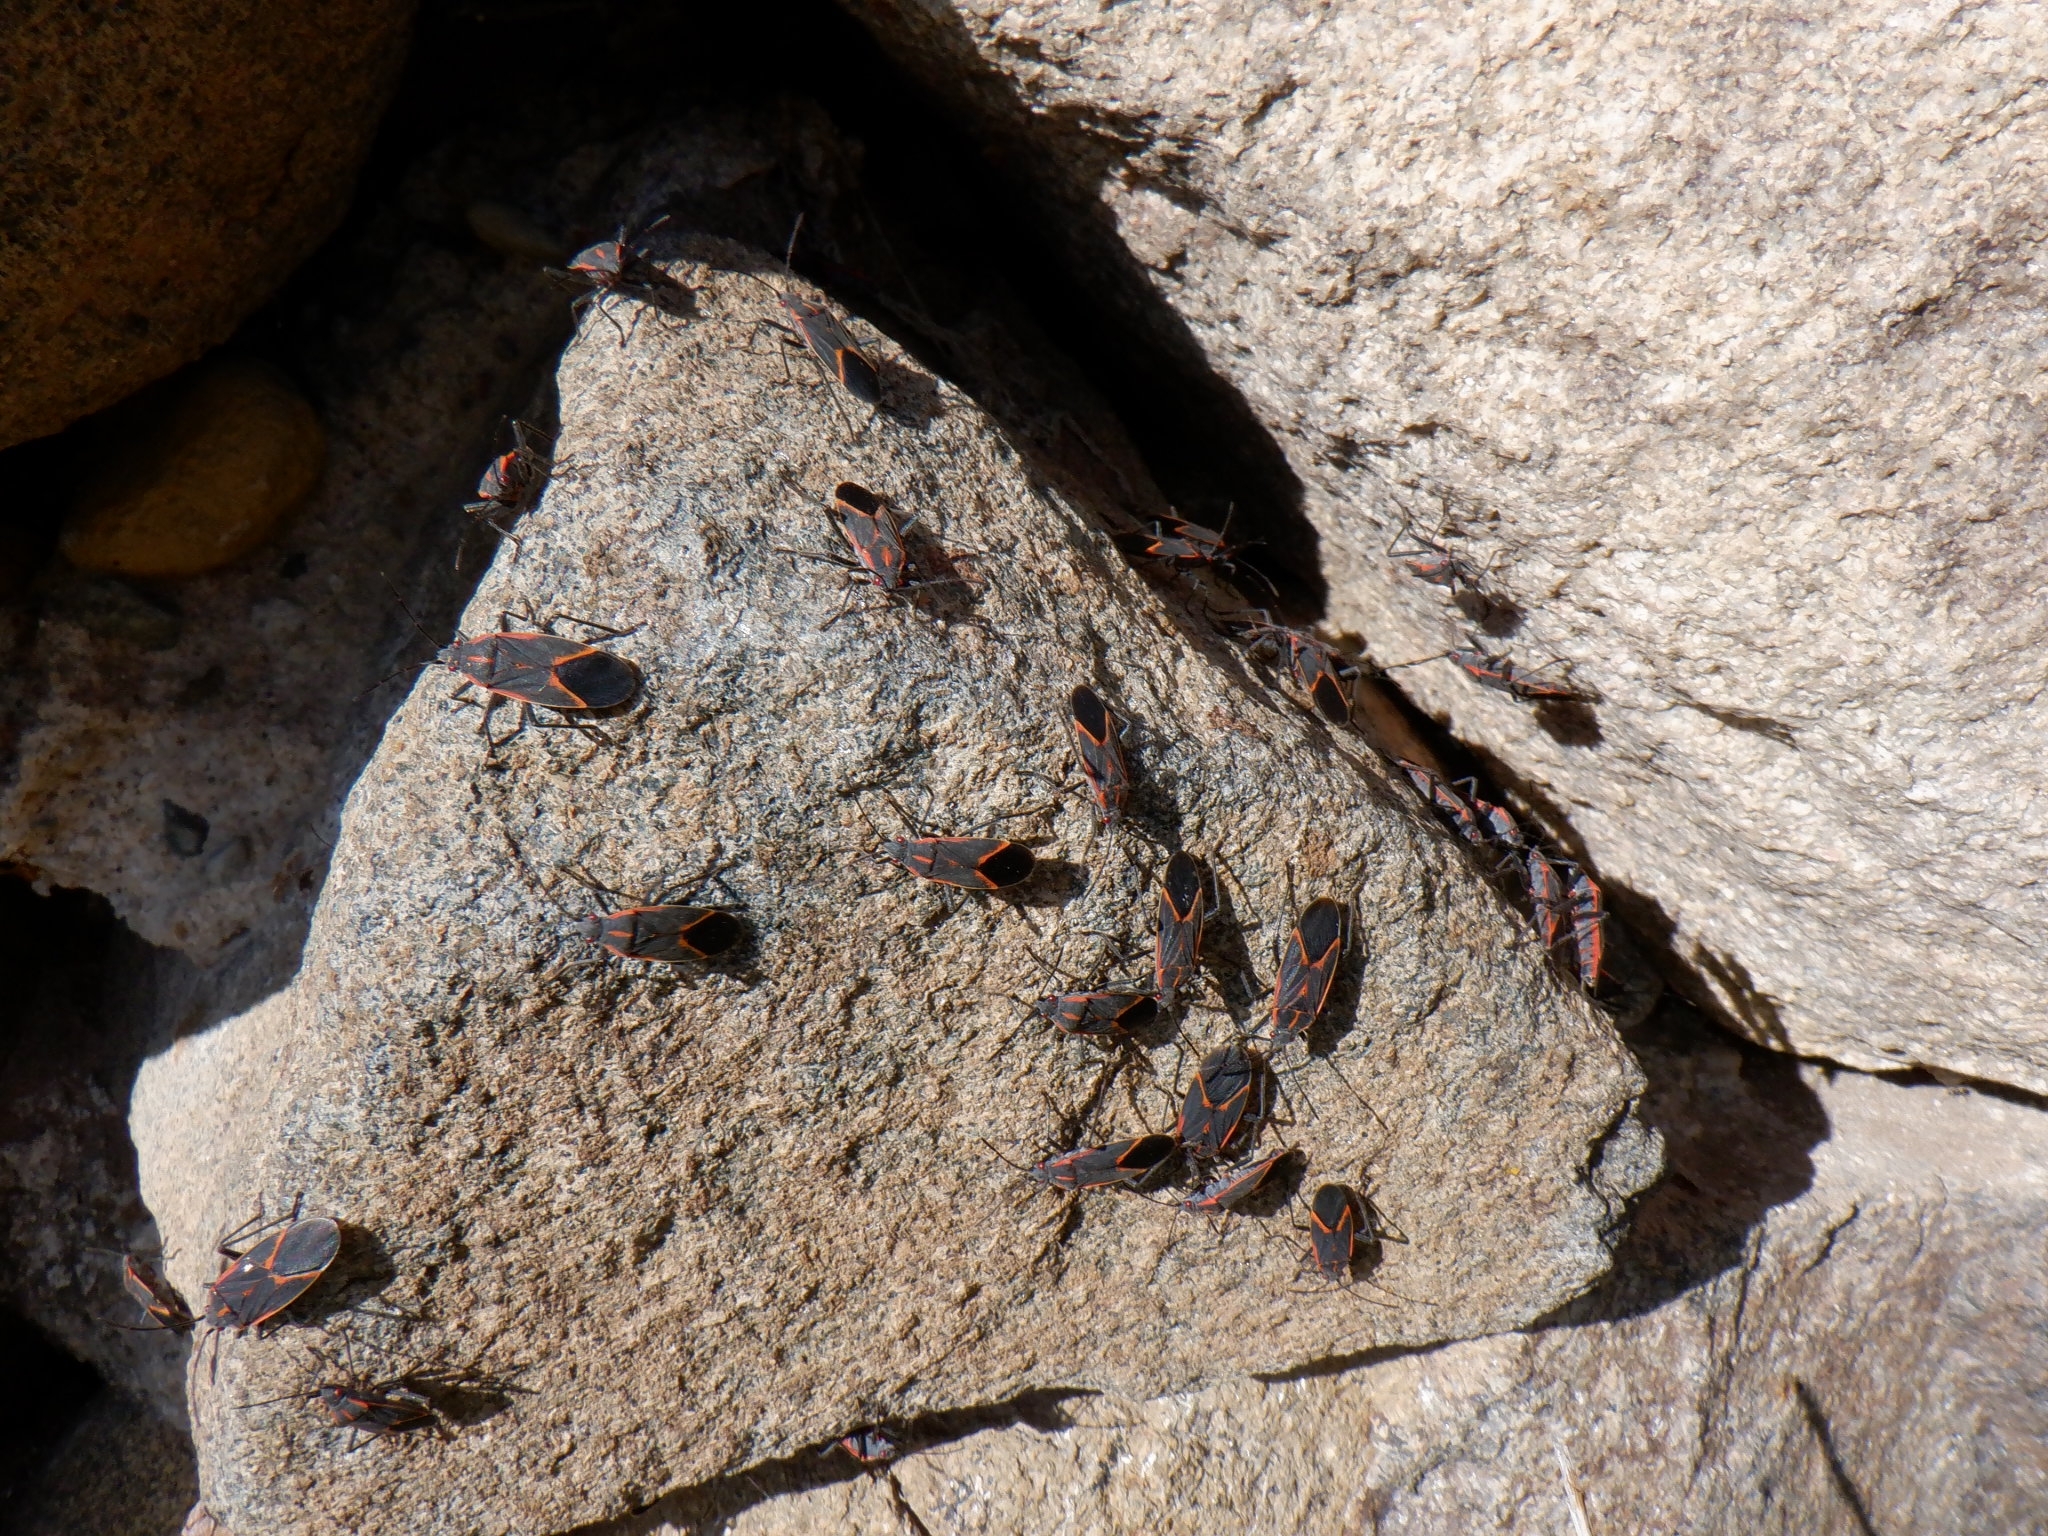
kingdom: Animalia
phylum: Arthropoda
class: Insecta
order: Hemiptera
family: Rhopalidae
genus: Boisea
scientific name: Boisea trivittata
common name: Boxelder bug
